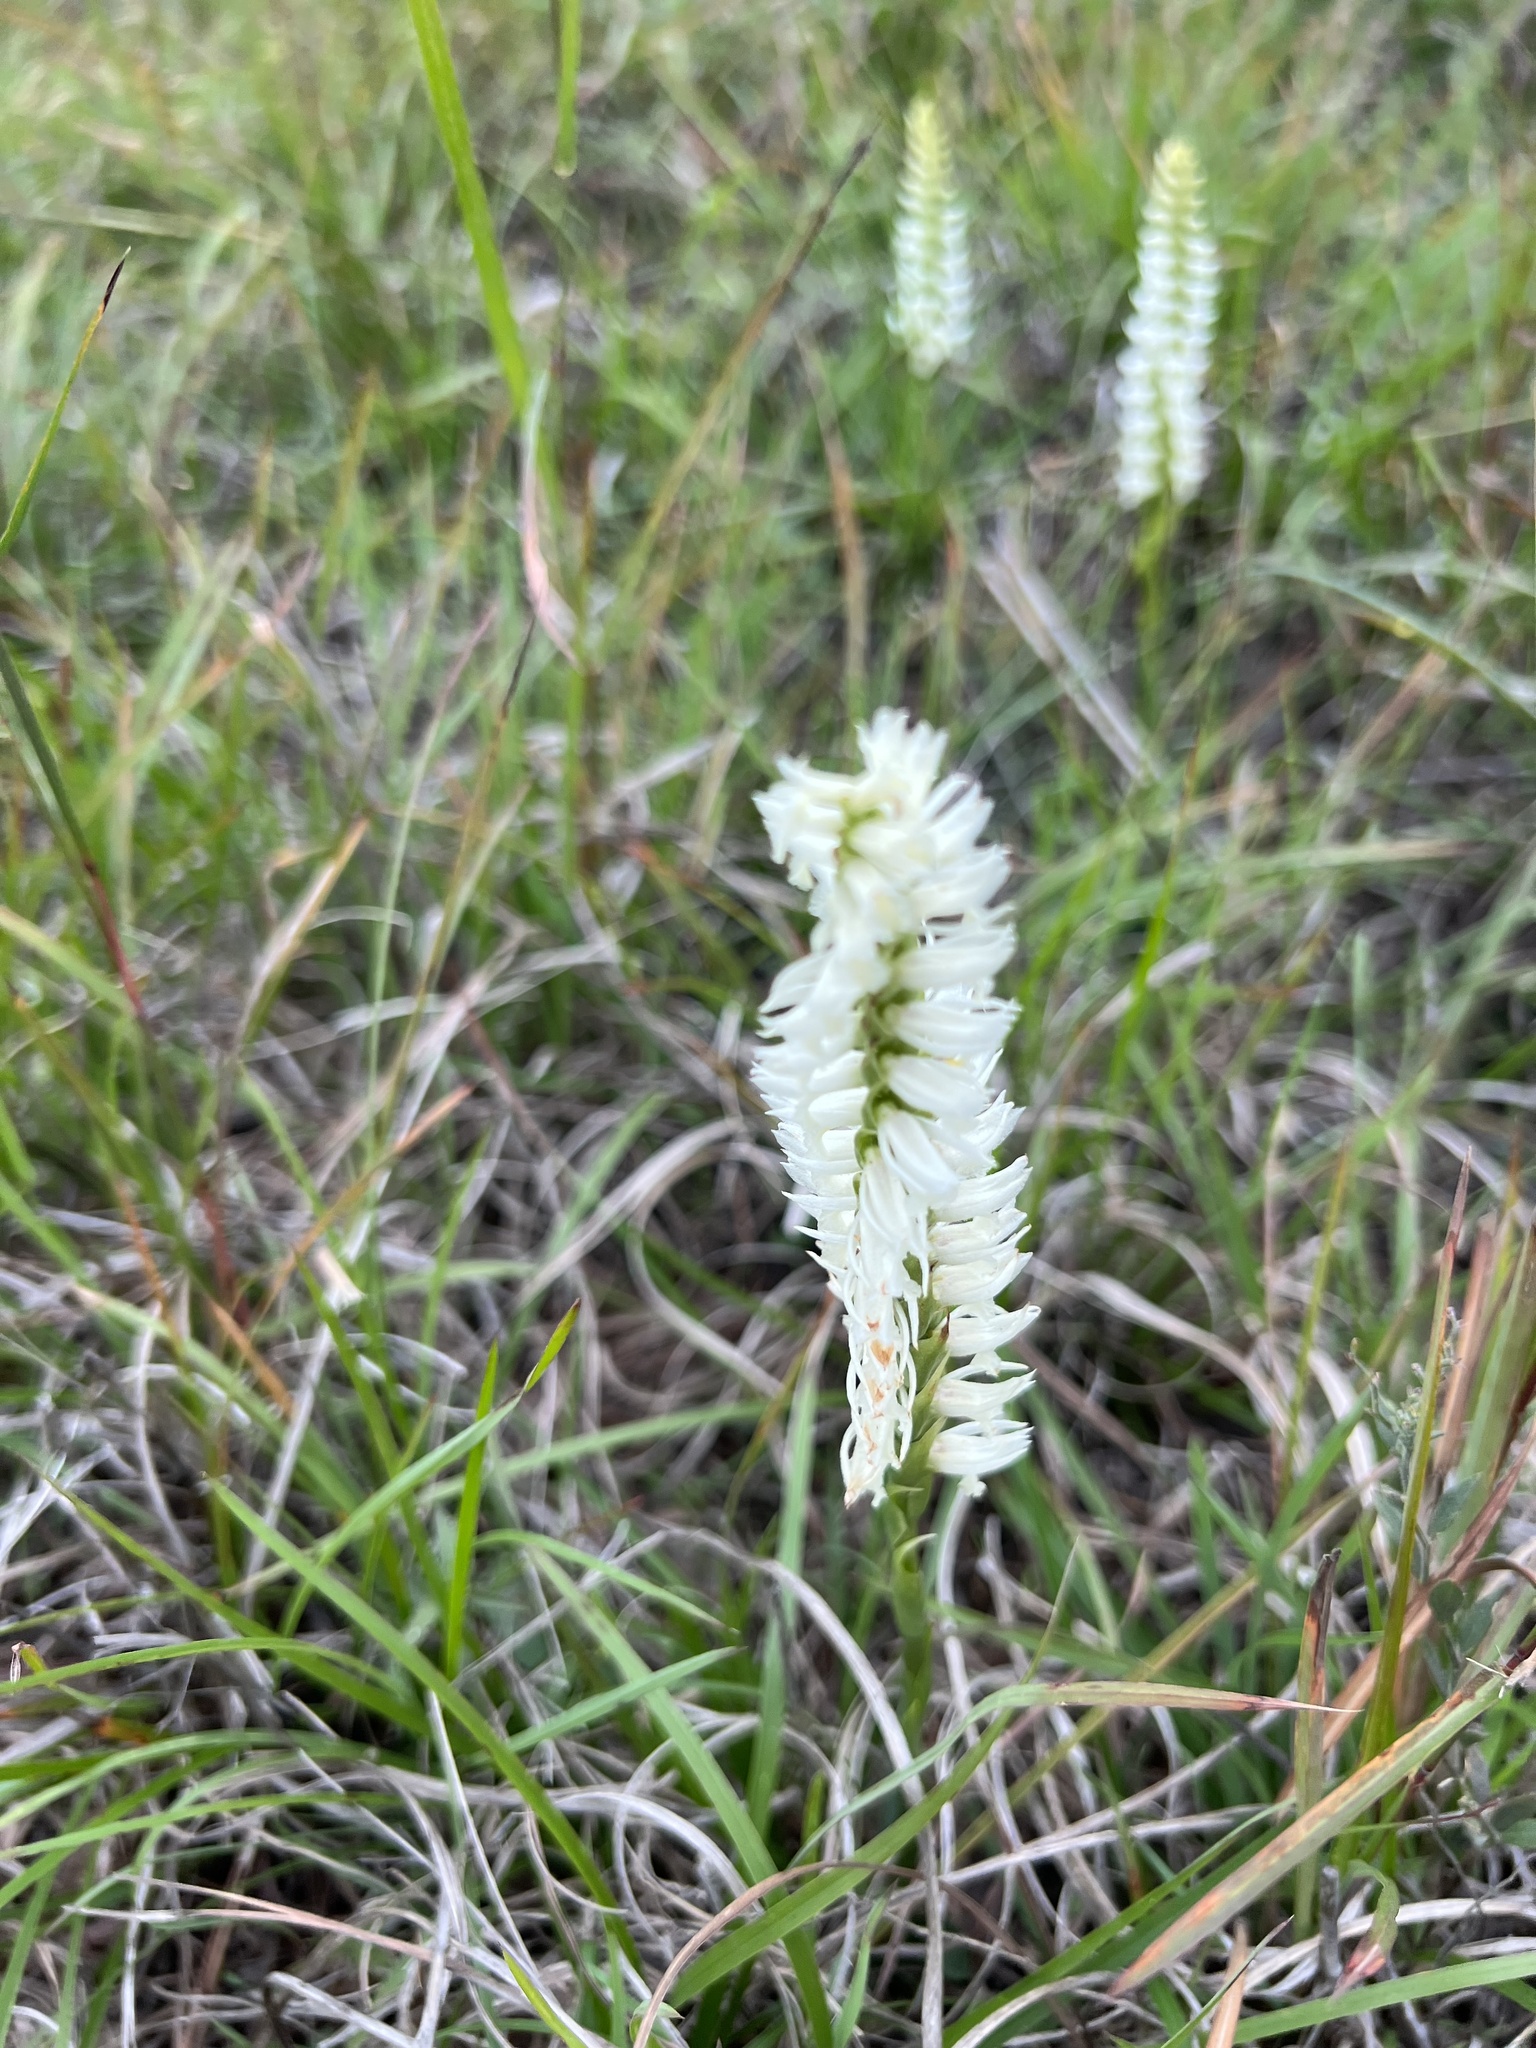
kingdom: Plantae
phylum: Tracheophyta
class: Liliopsida
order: Asparagales
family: Orchidaceae
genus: Spiranthes
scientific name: Spiranthes magnicamporum
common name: Great plains ladies'-tresses
